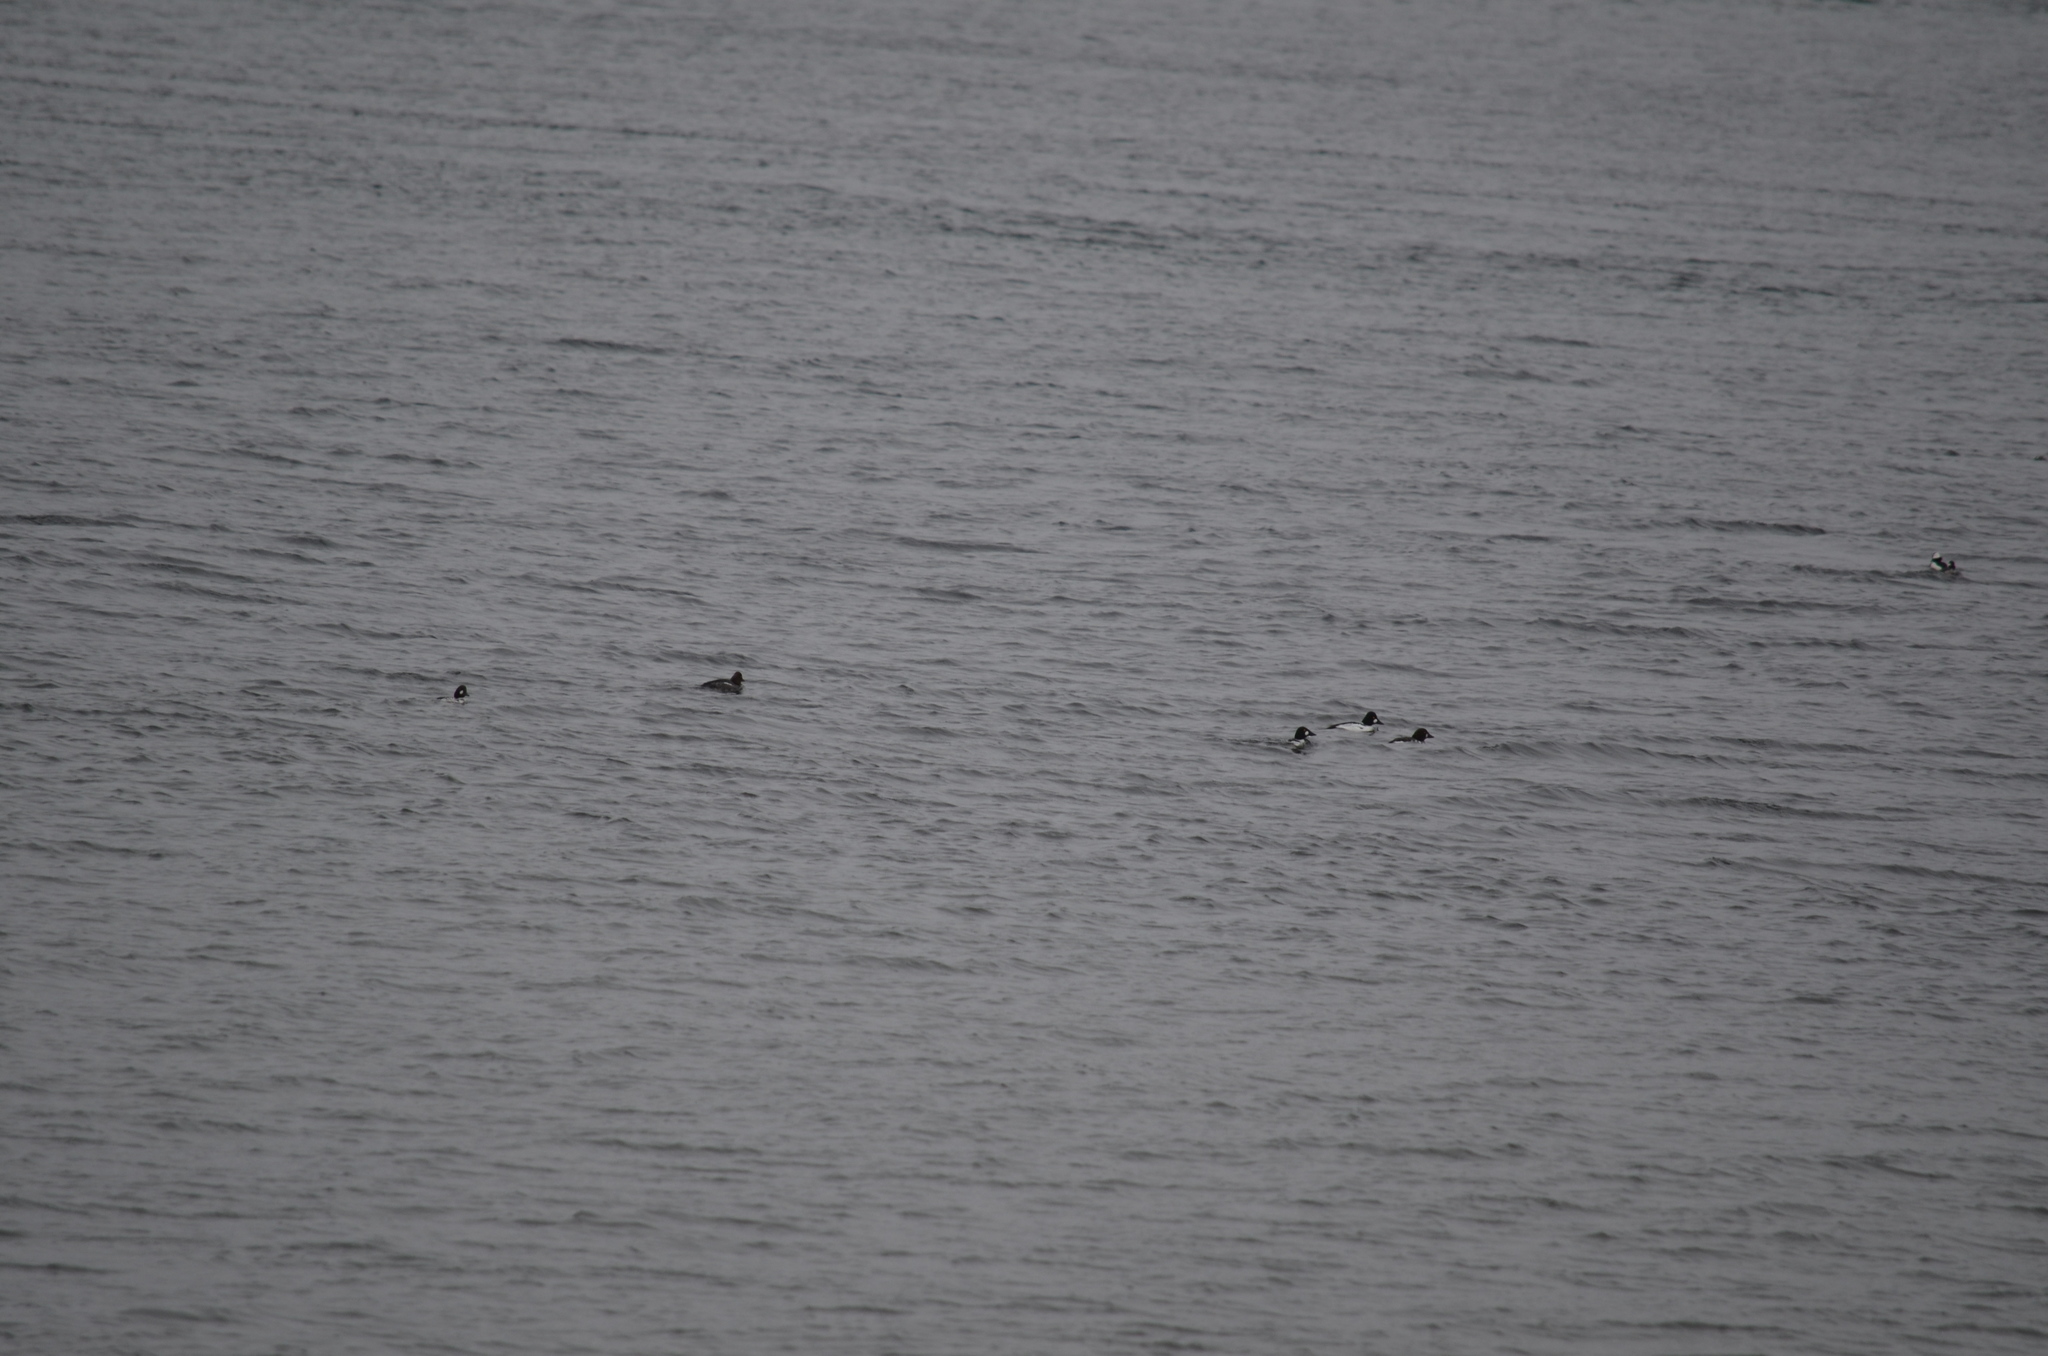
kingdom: Animalia
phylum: Chordata
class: Aves
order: Anseriformes
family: Anatidae
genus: Bucephala
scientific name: Bucephala clangula
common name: Common goldeneye
